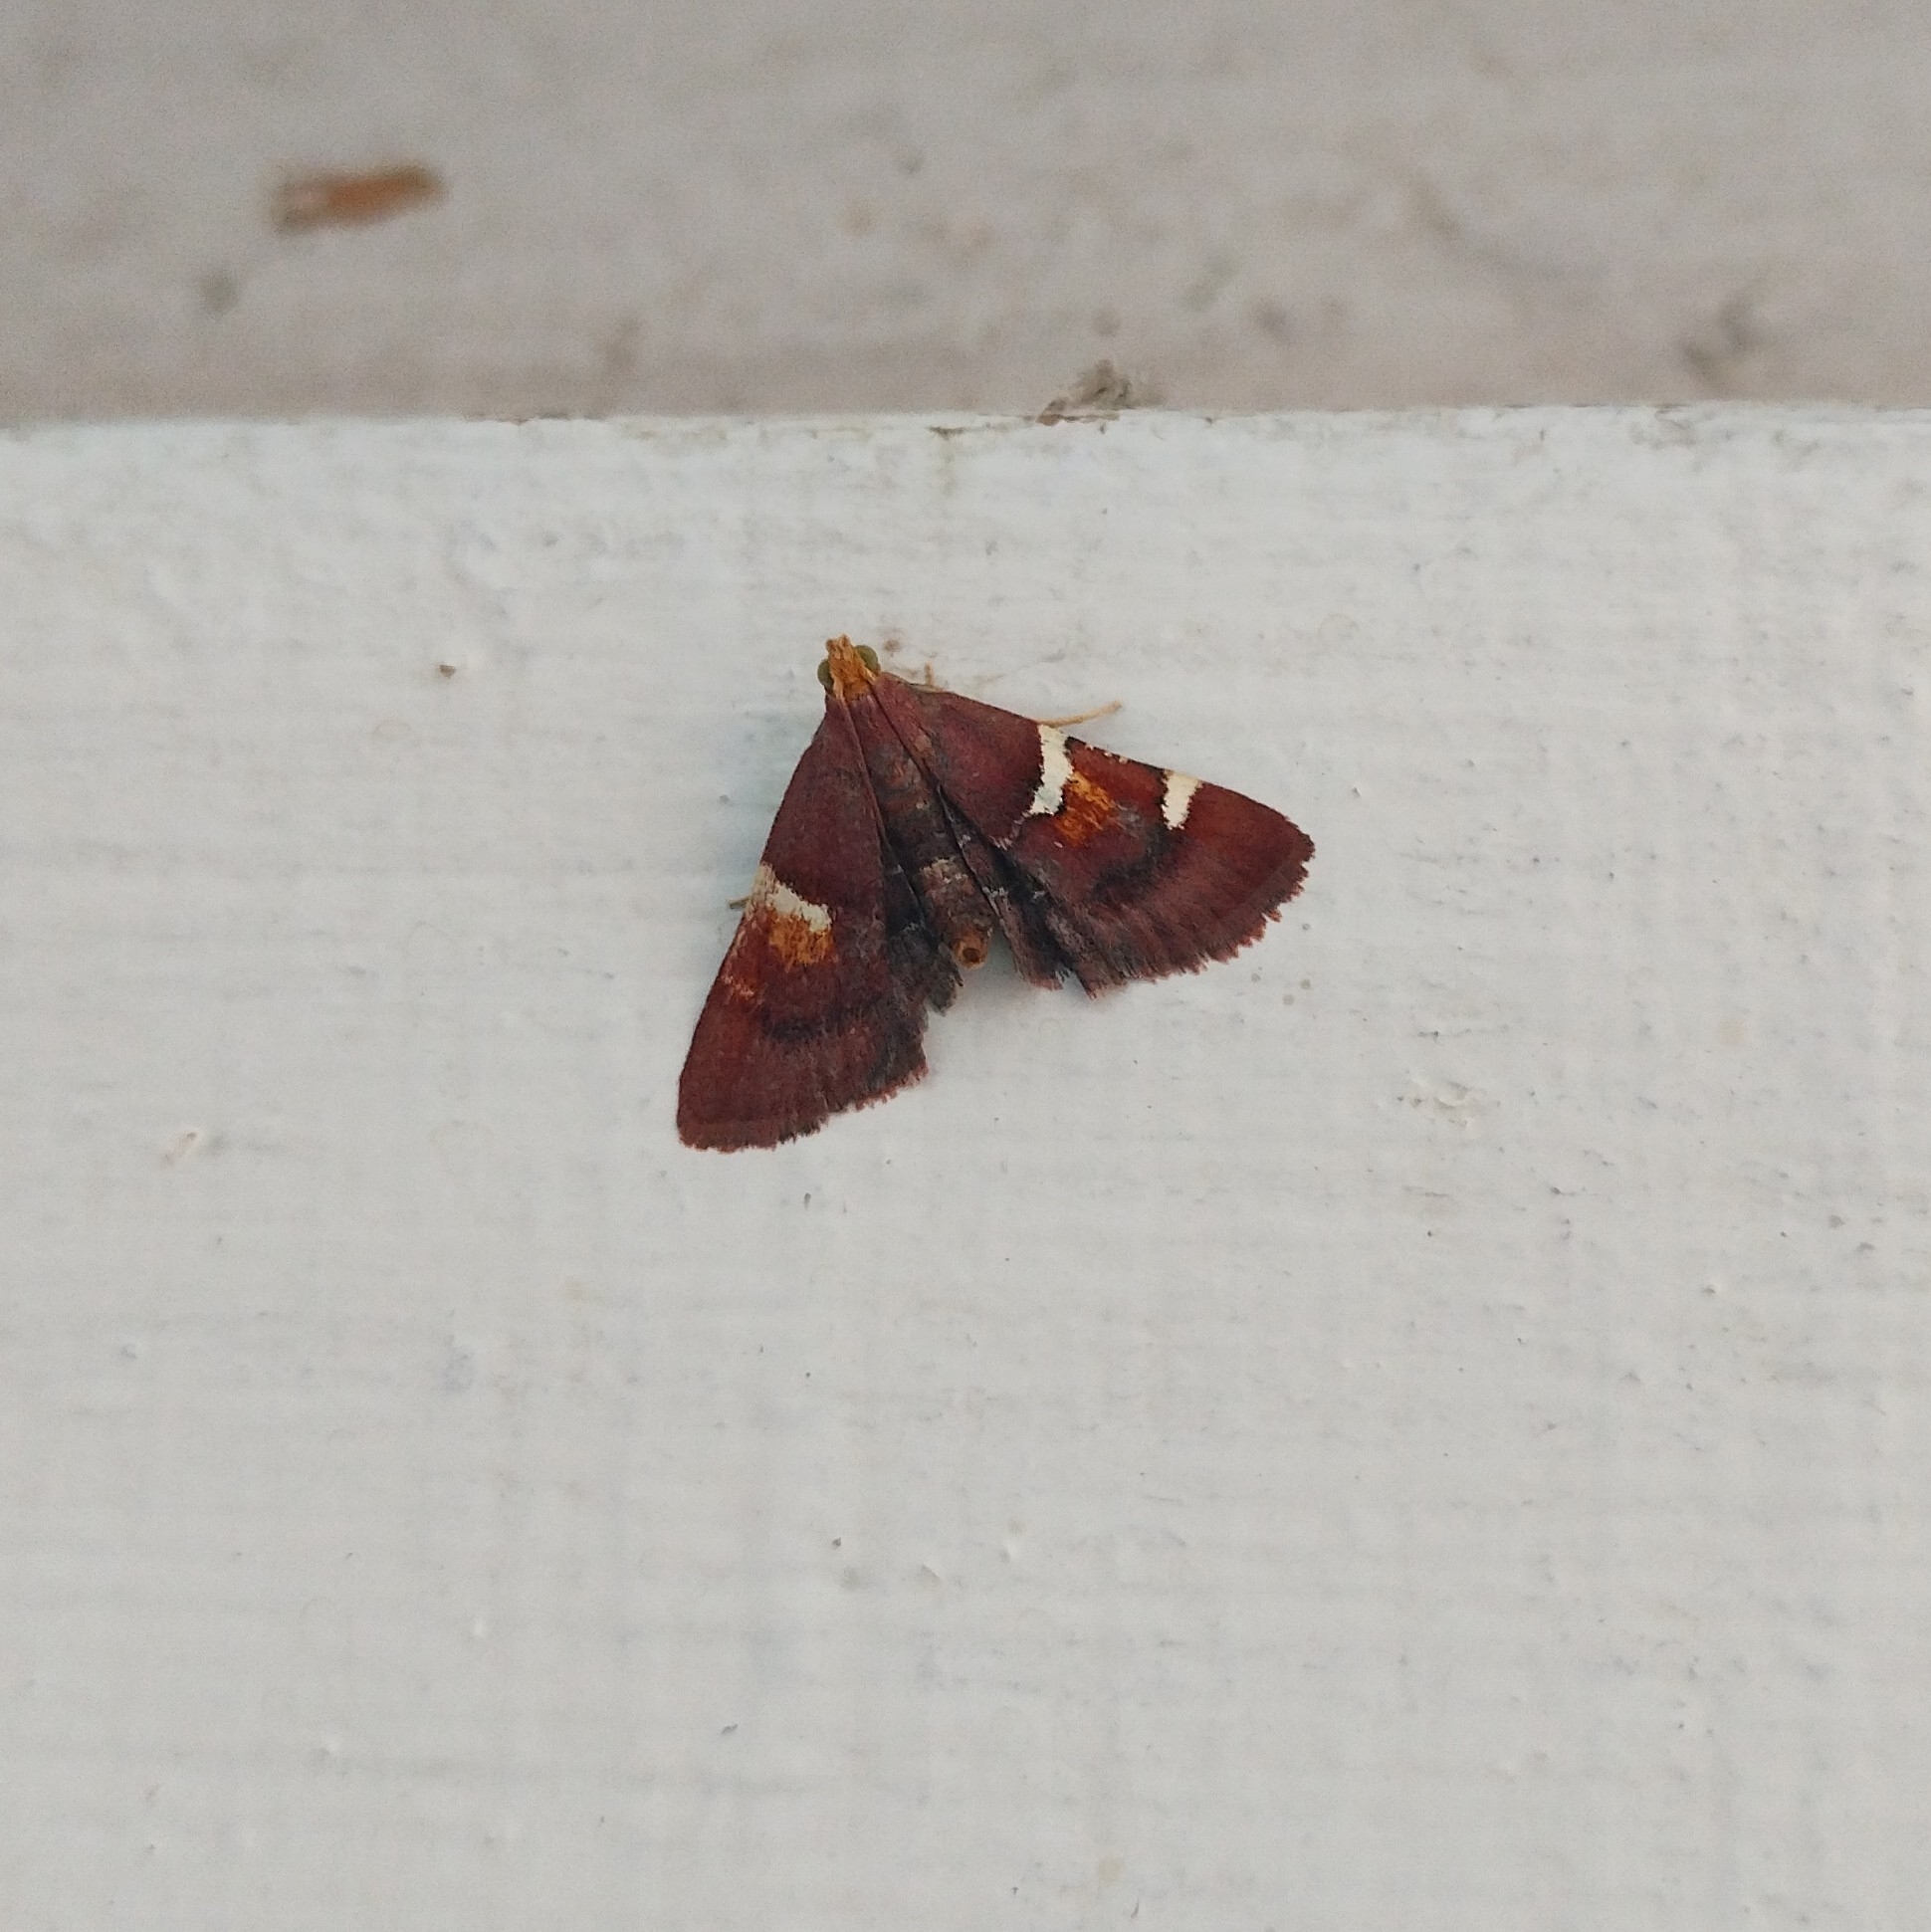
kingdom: Animalia
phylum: Arthropoda
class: Insecta
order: Lepidoptera
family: Pyralidae
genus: Pyralis
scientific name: Pyralis regalis
